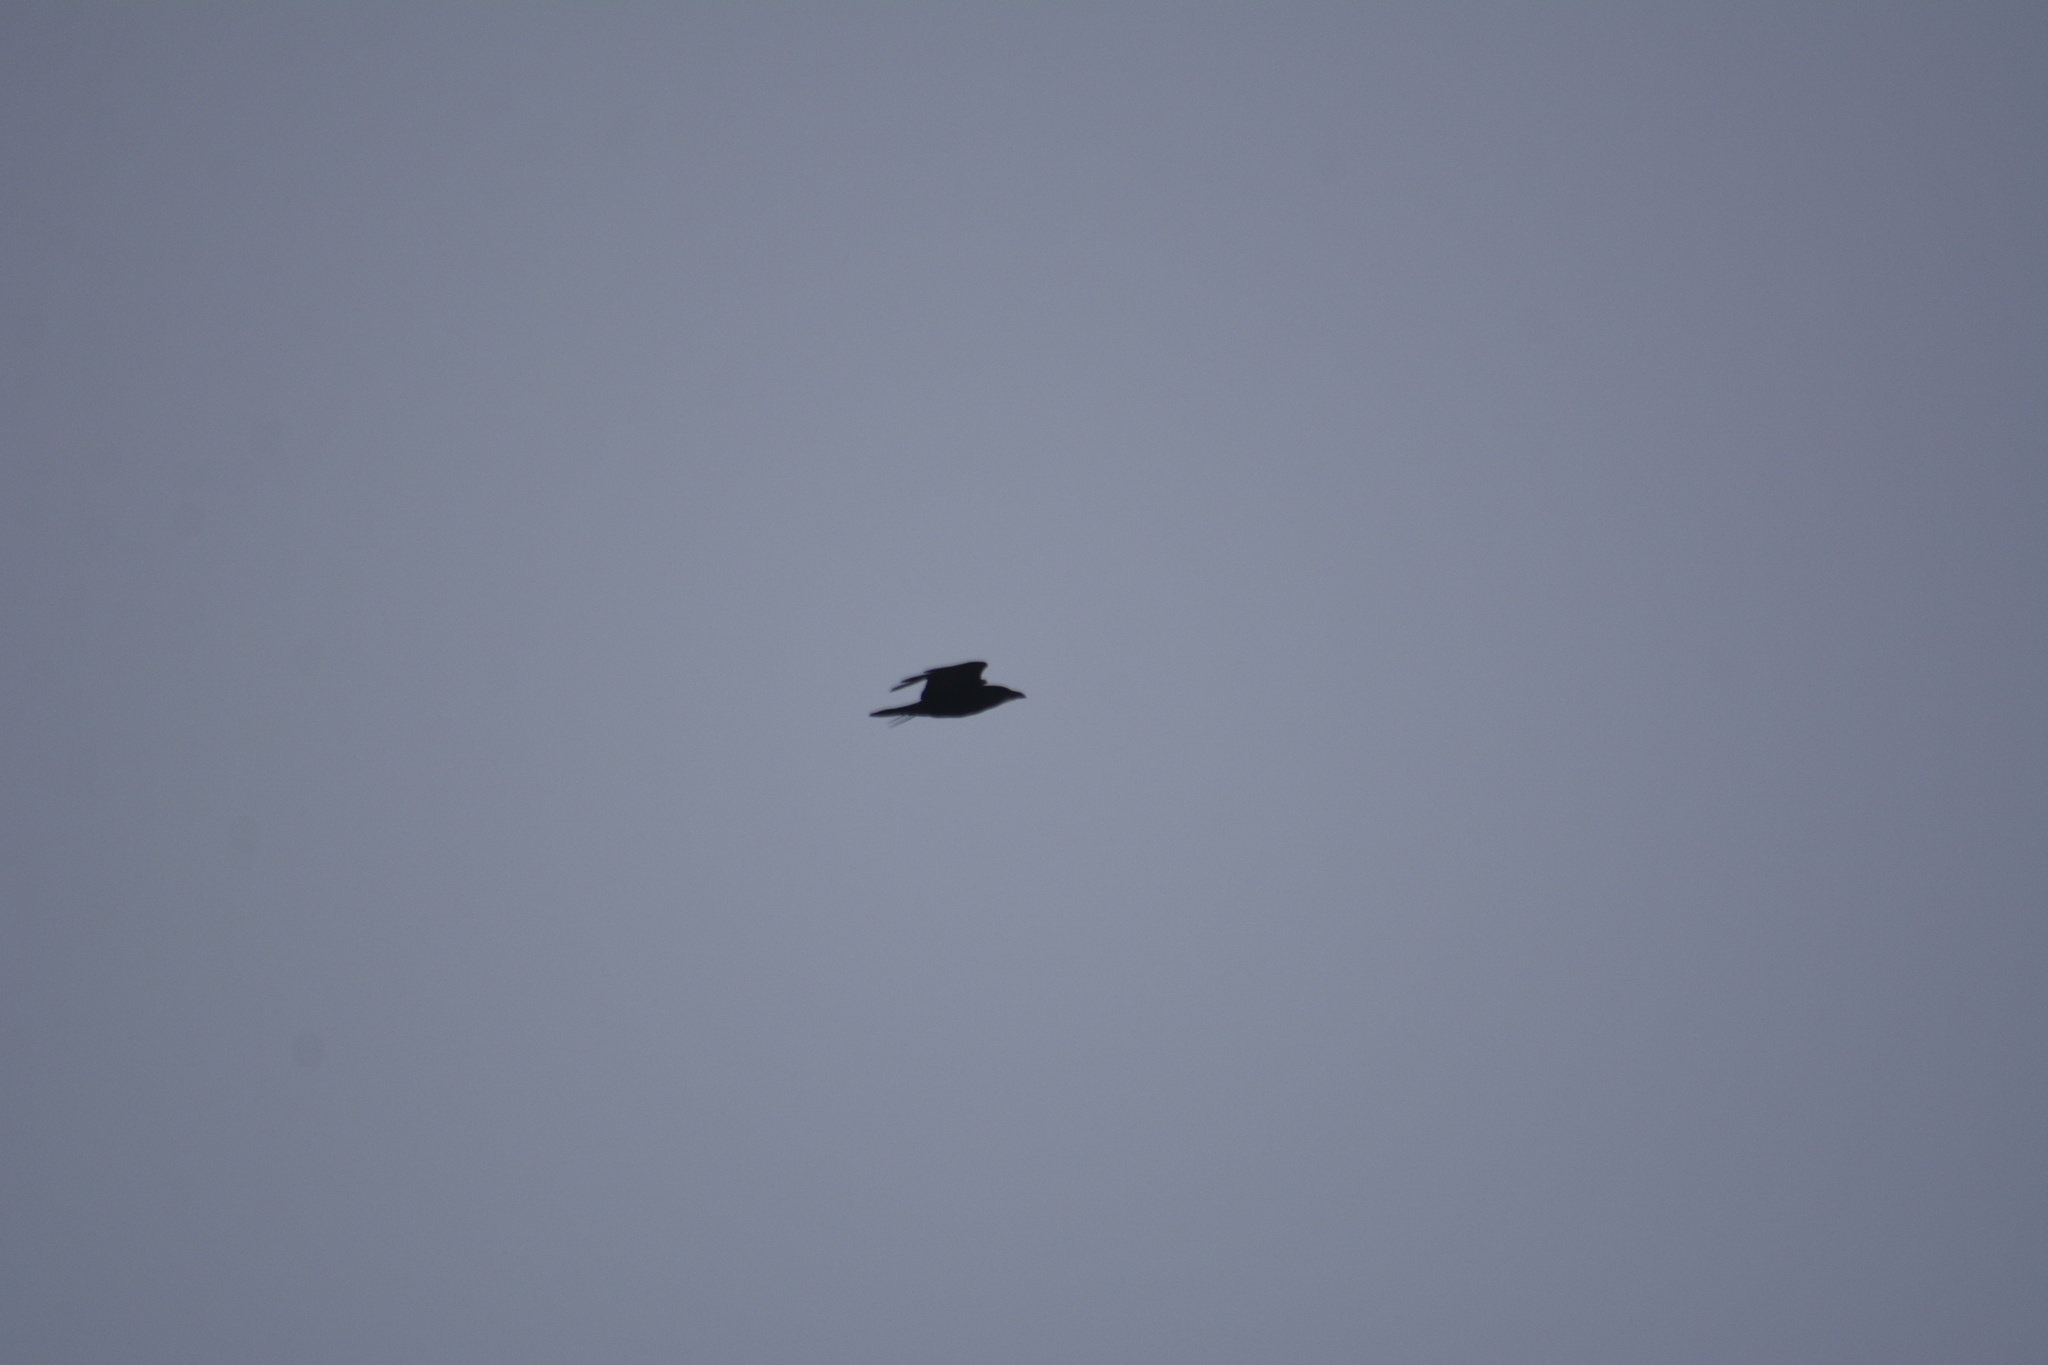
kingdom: Animalia
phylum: Chordata
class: Aves
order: Passeriformes
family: Corvidae
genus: Corvus
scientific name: Corvus corax
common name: Common raven
